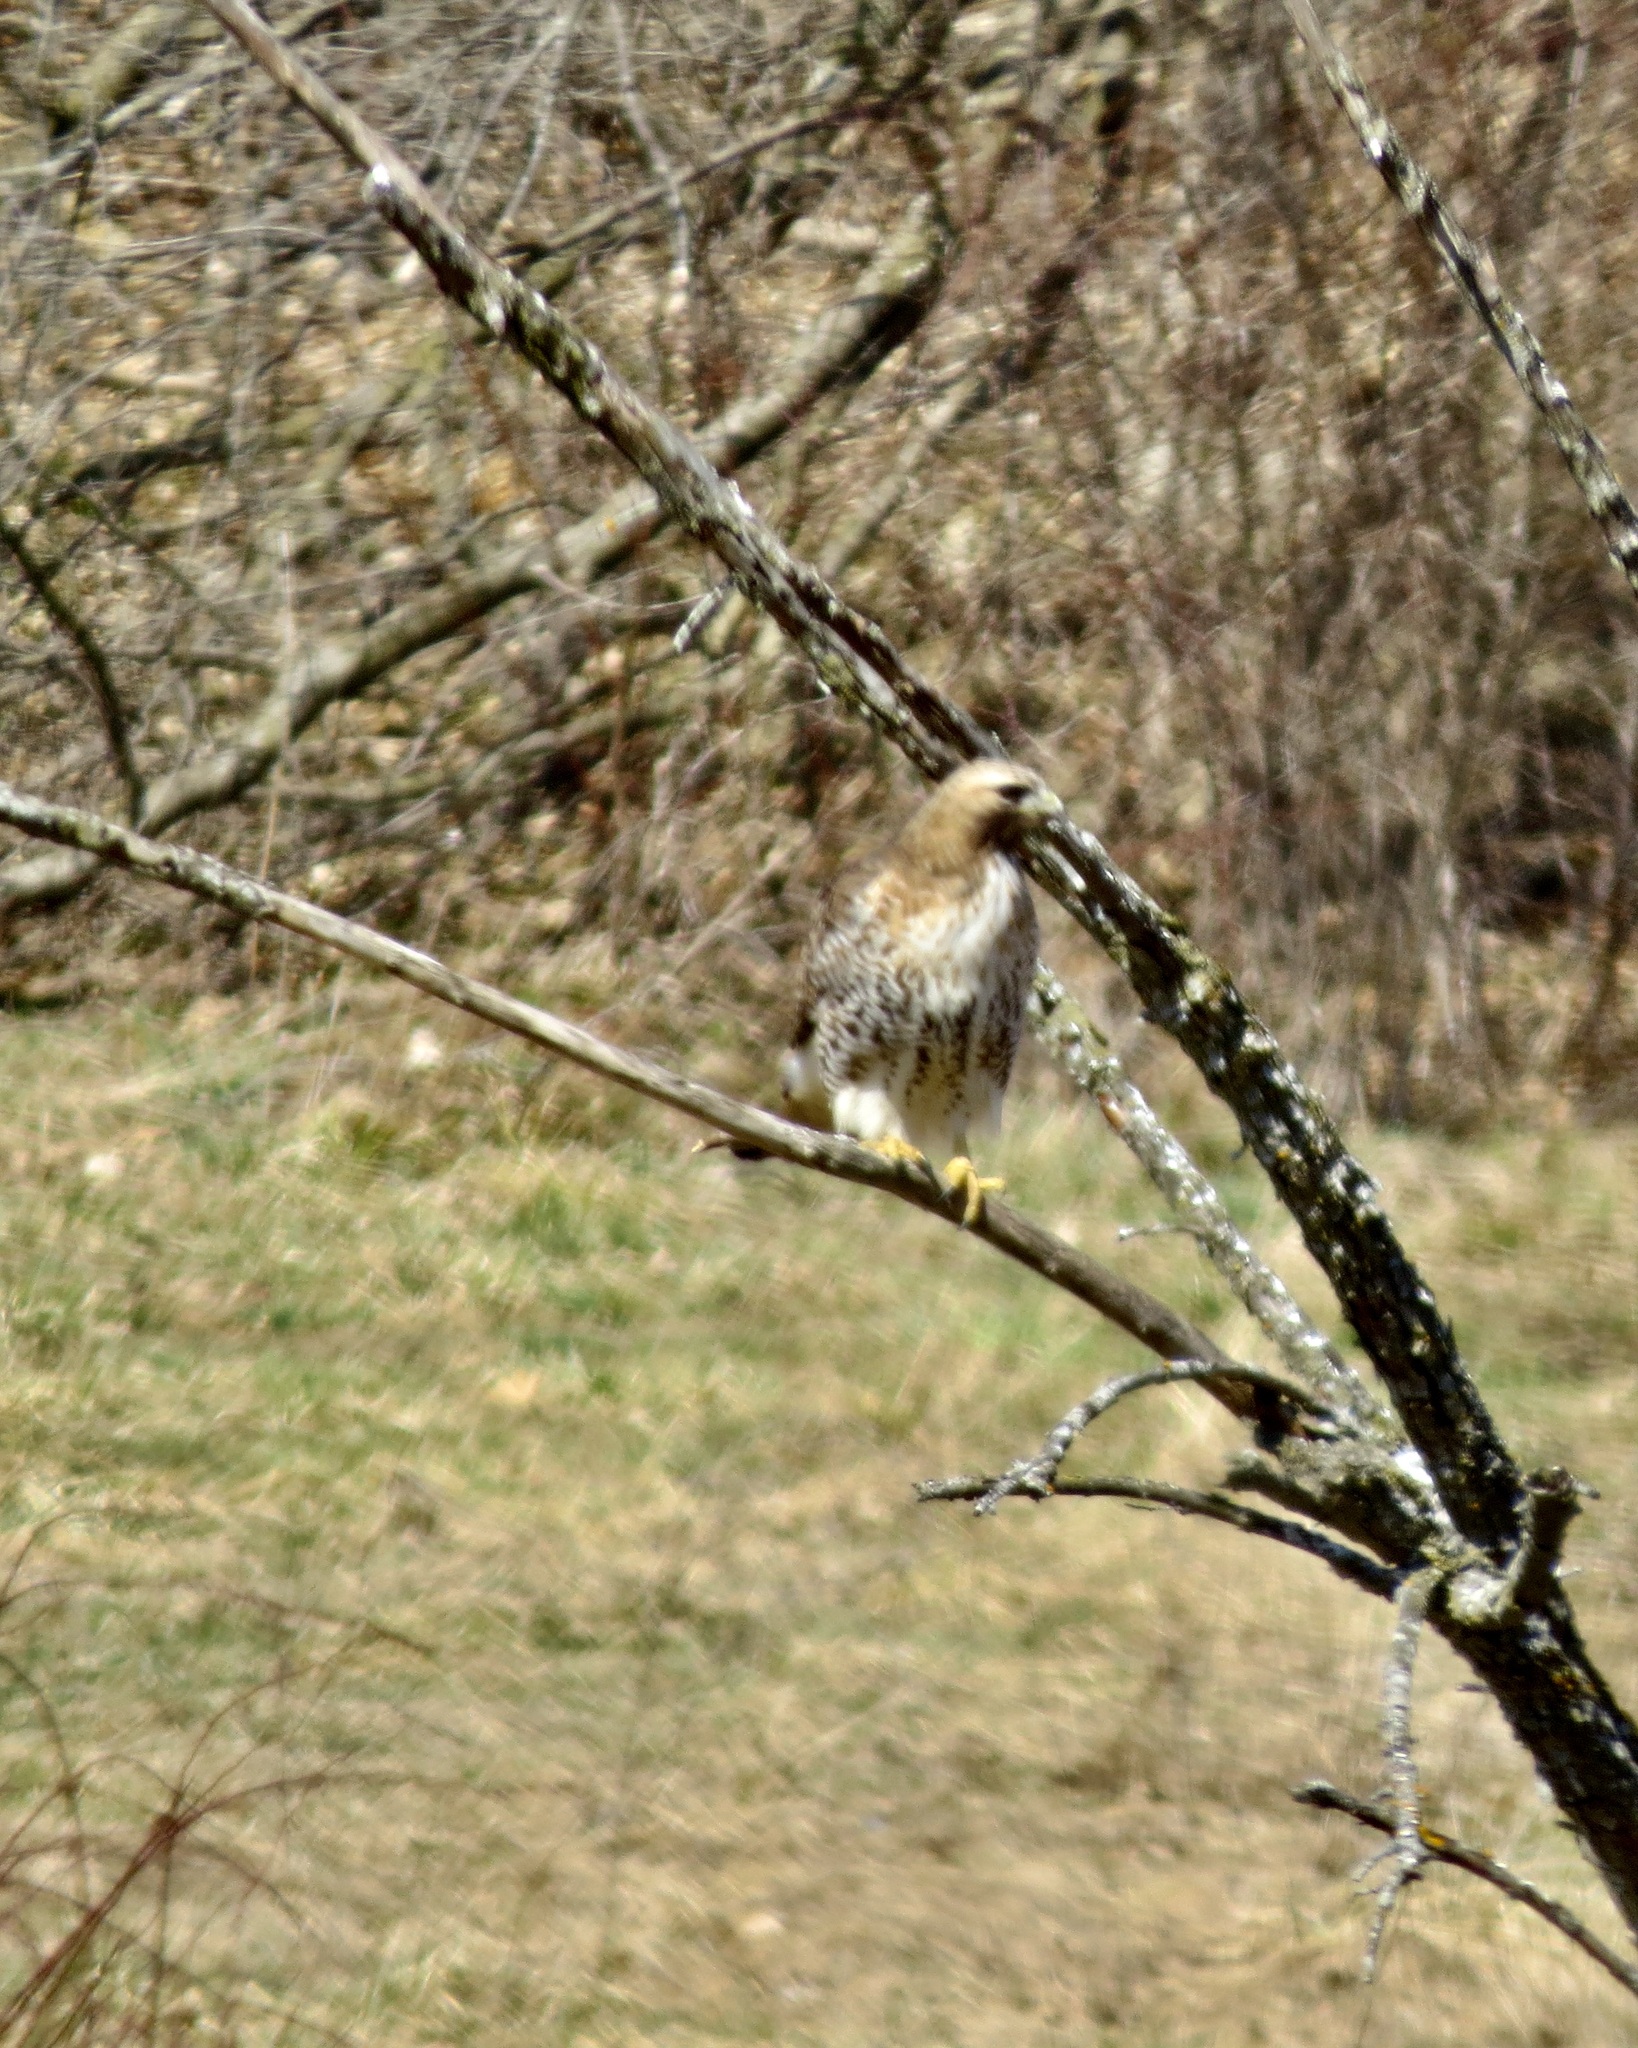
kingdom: Animalia
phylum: Chordata
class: Aves
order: Accipitriformes
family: Accipitridae
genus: Buteo
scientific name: Buteo jamaicensis
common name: Red-tailed hawk
